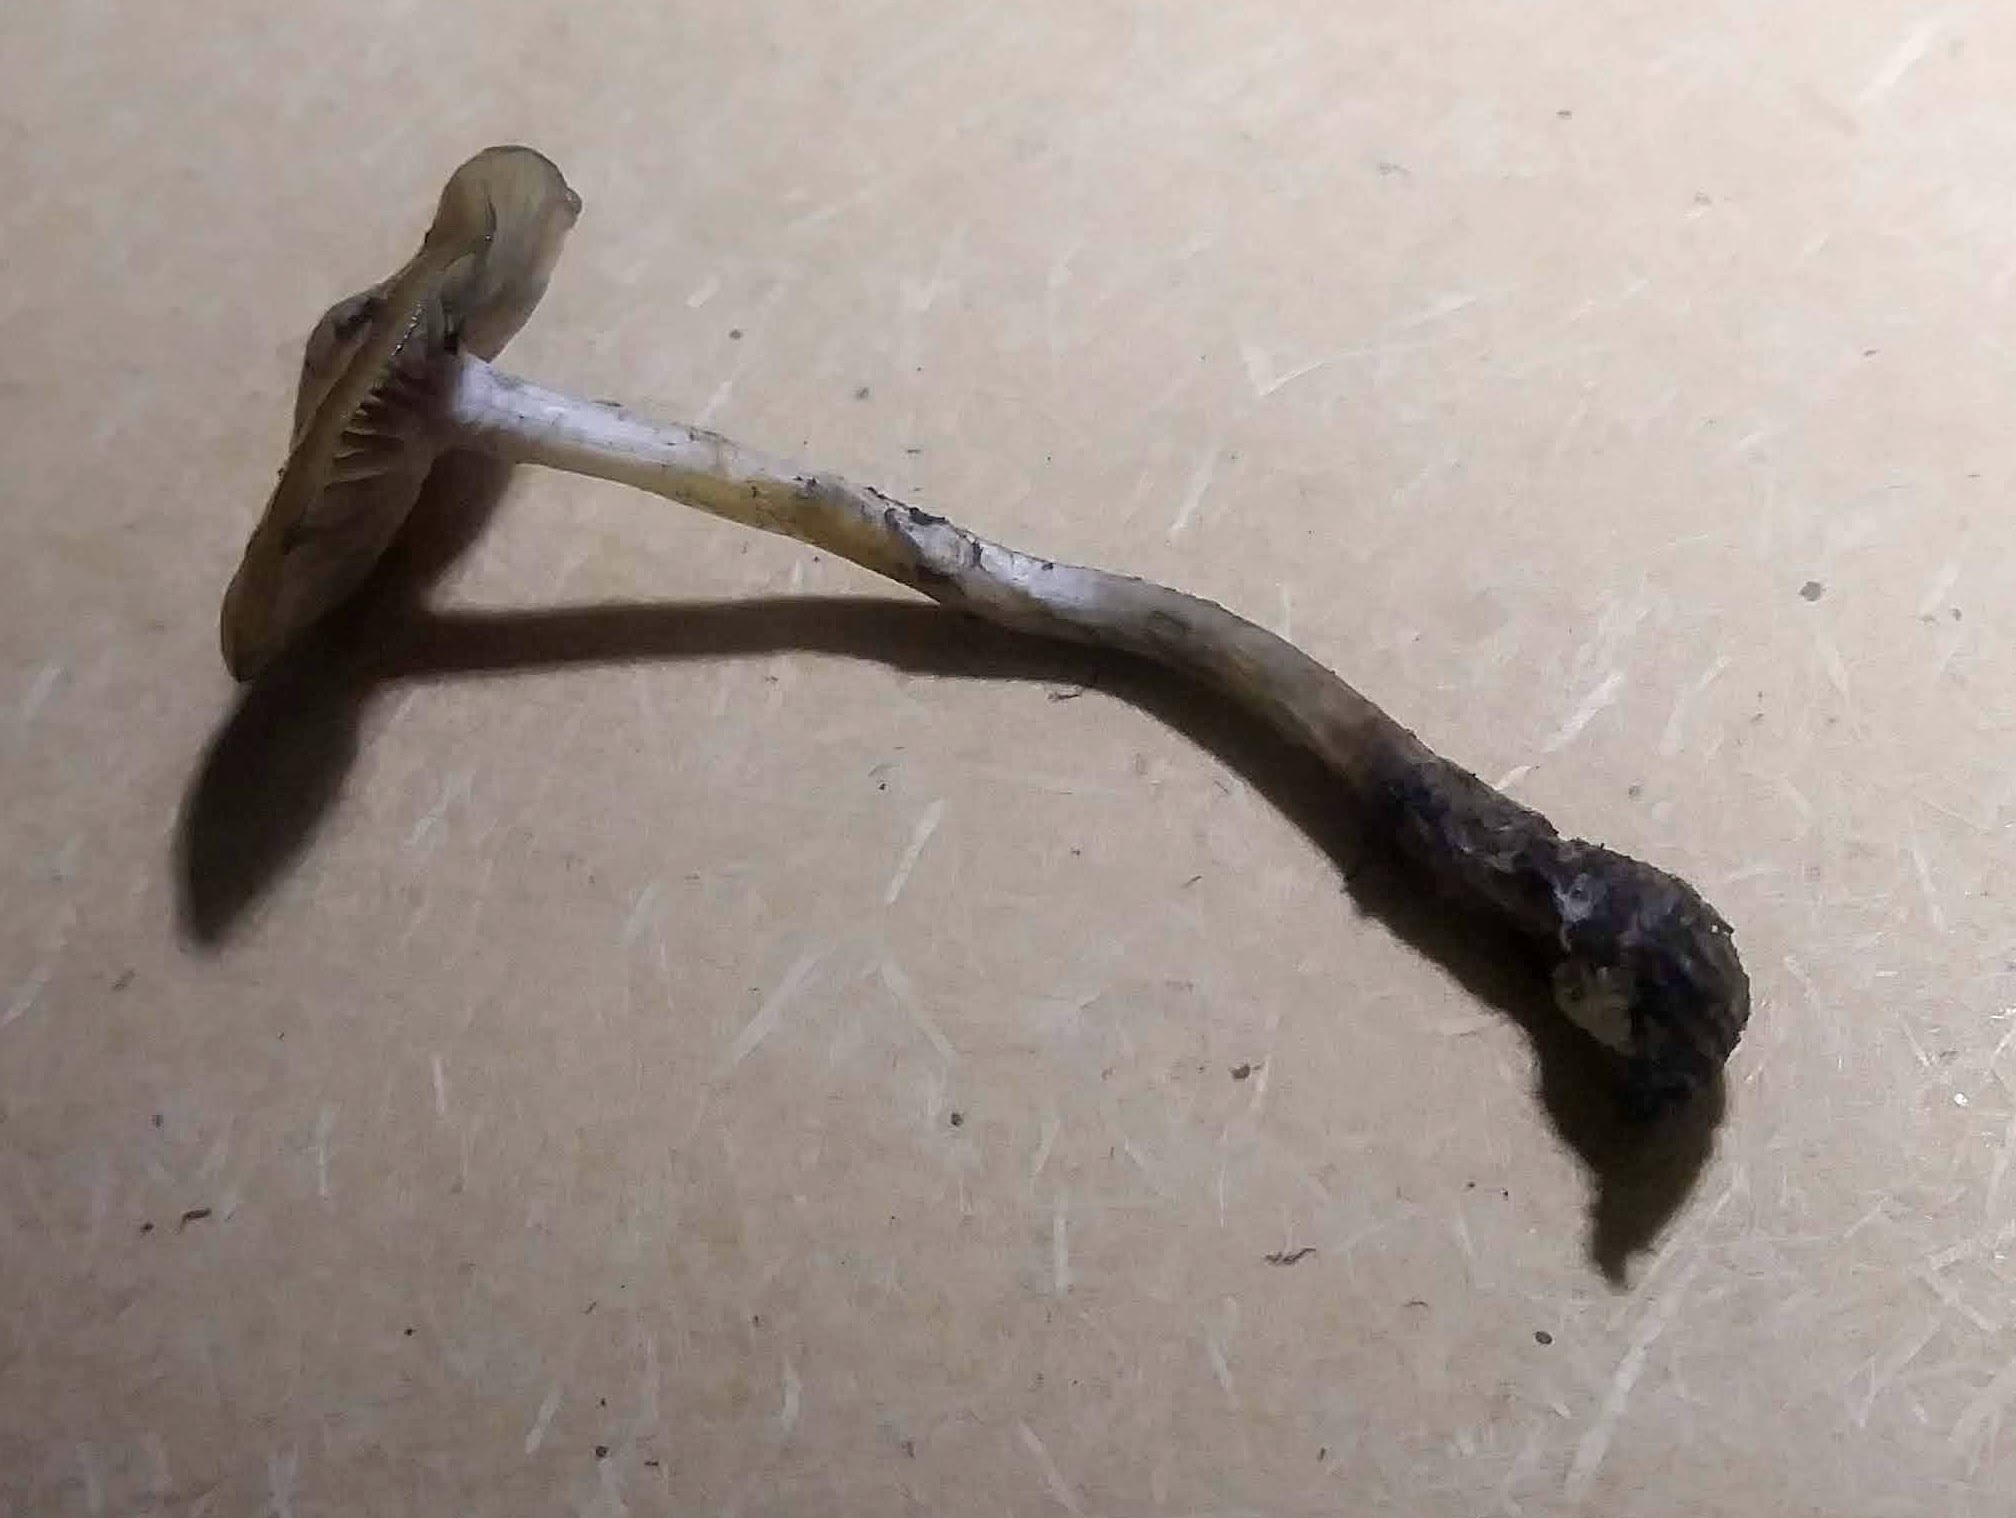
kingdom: Fungi
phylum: Basidiomycota
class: Agaricomycetes
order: Agaricales
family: Hymenogastraceae
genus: Psilocybe
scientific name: Psilocybe cyanescens
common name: Blueleg brownie
